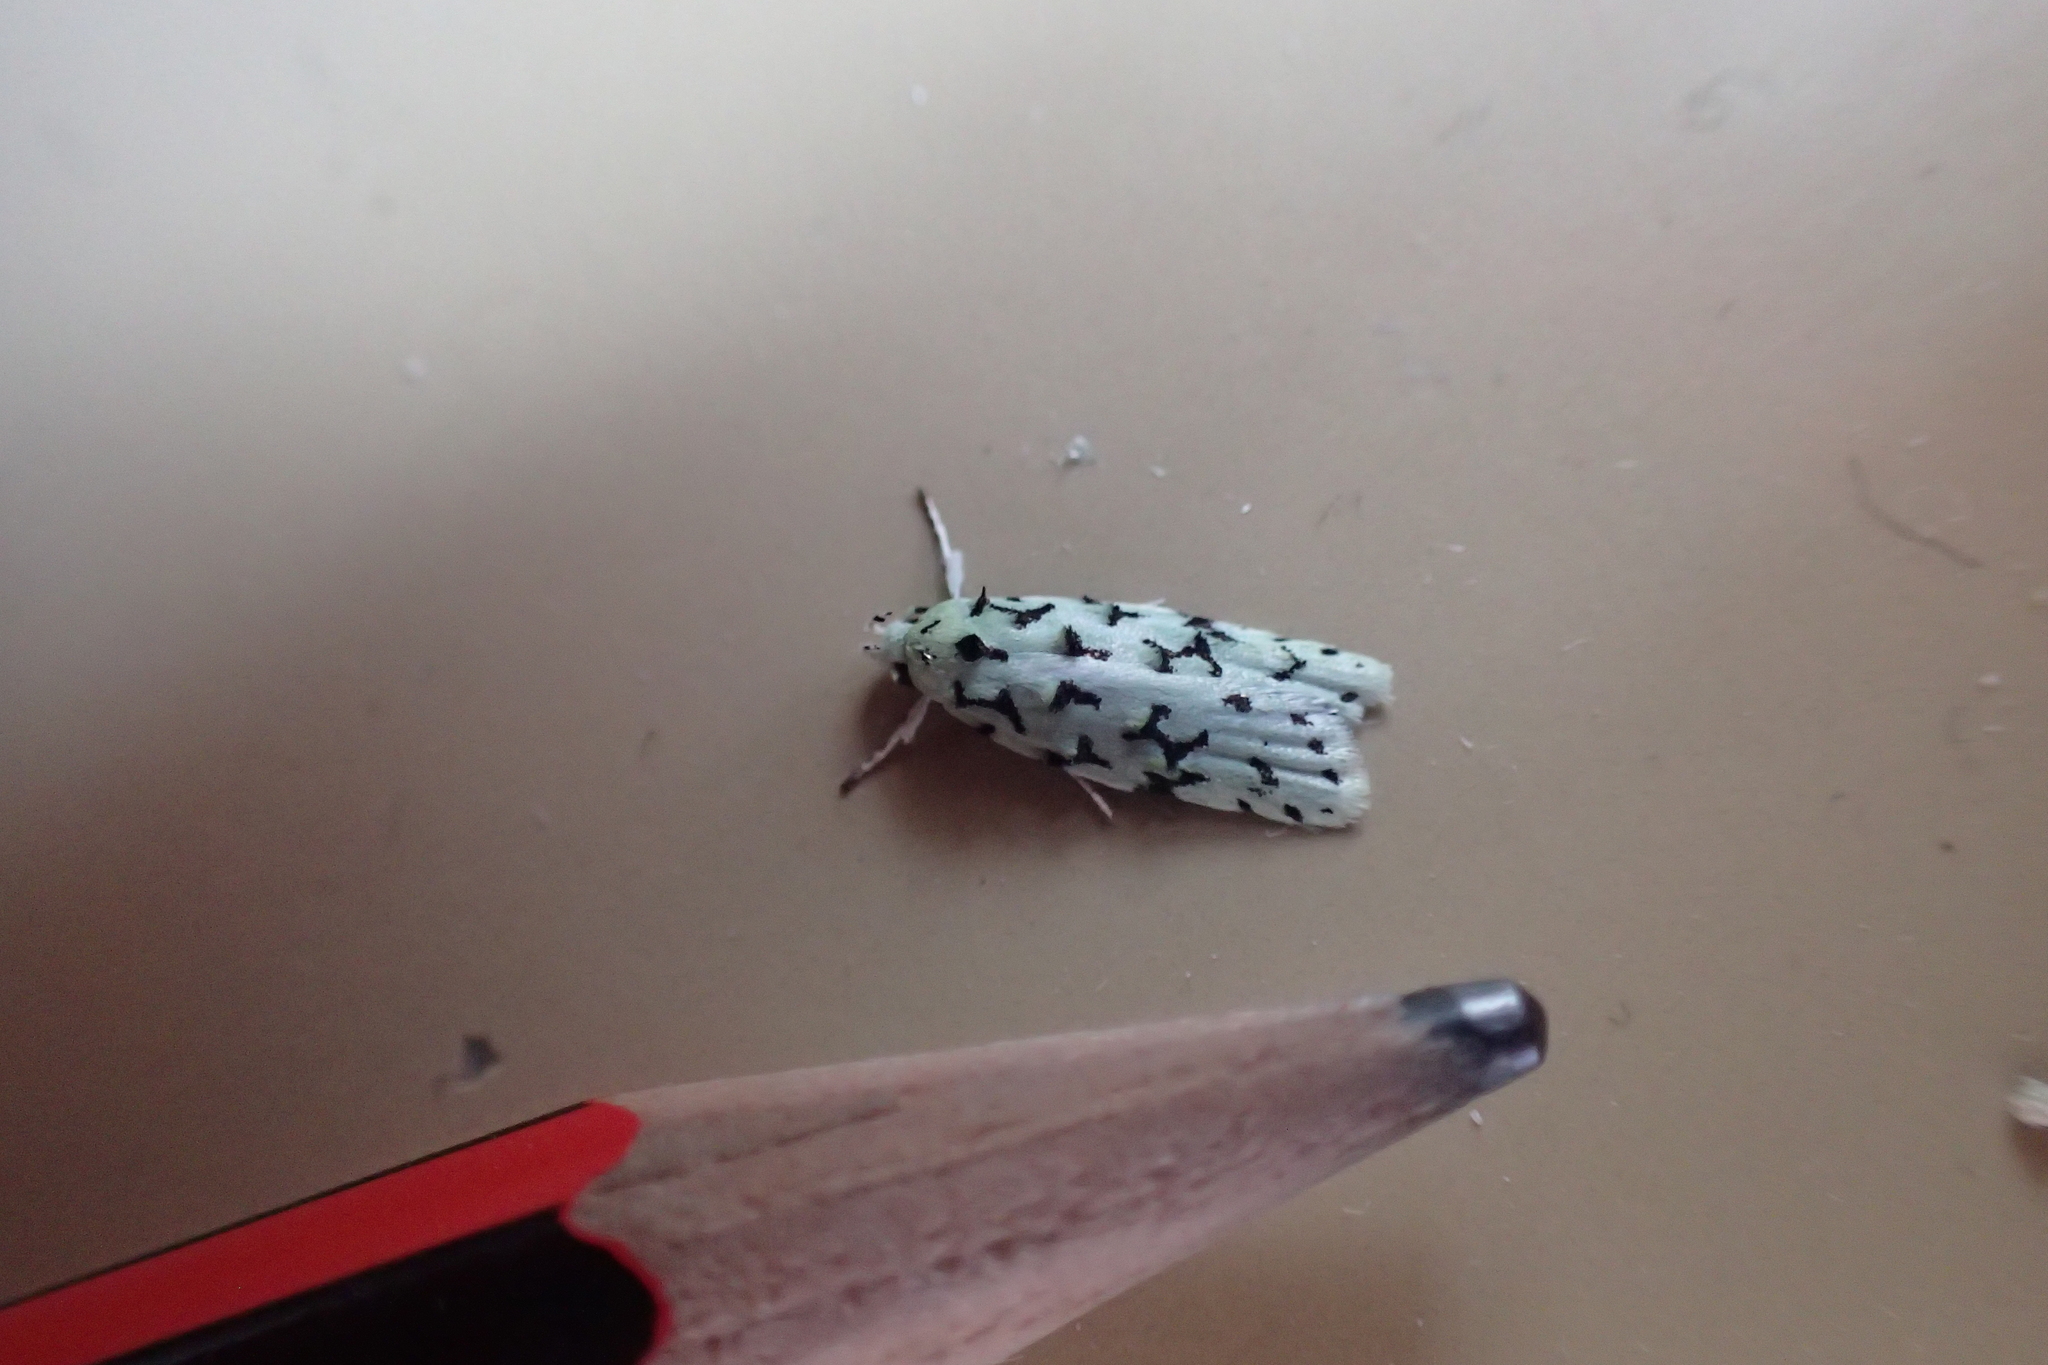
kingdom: Animalia
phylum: Arthropoda
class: Insecta
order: Lepidoptera
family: Oecophoridae
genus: Izatha
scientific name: Izatha huttoni
